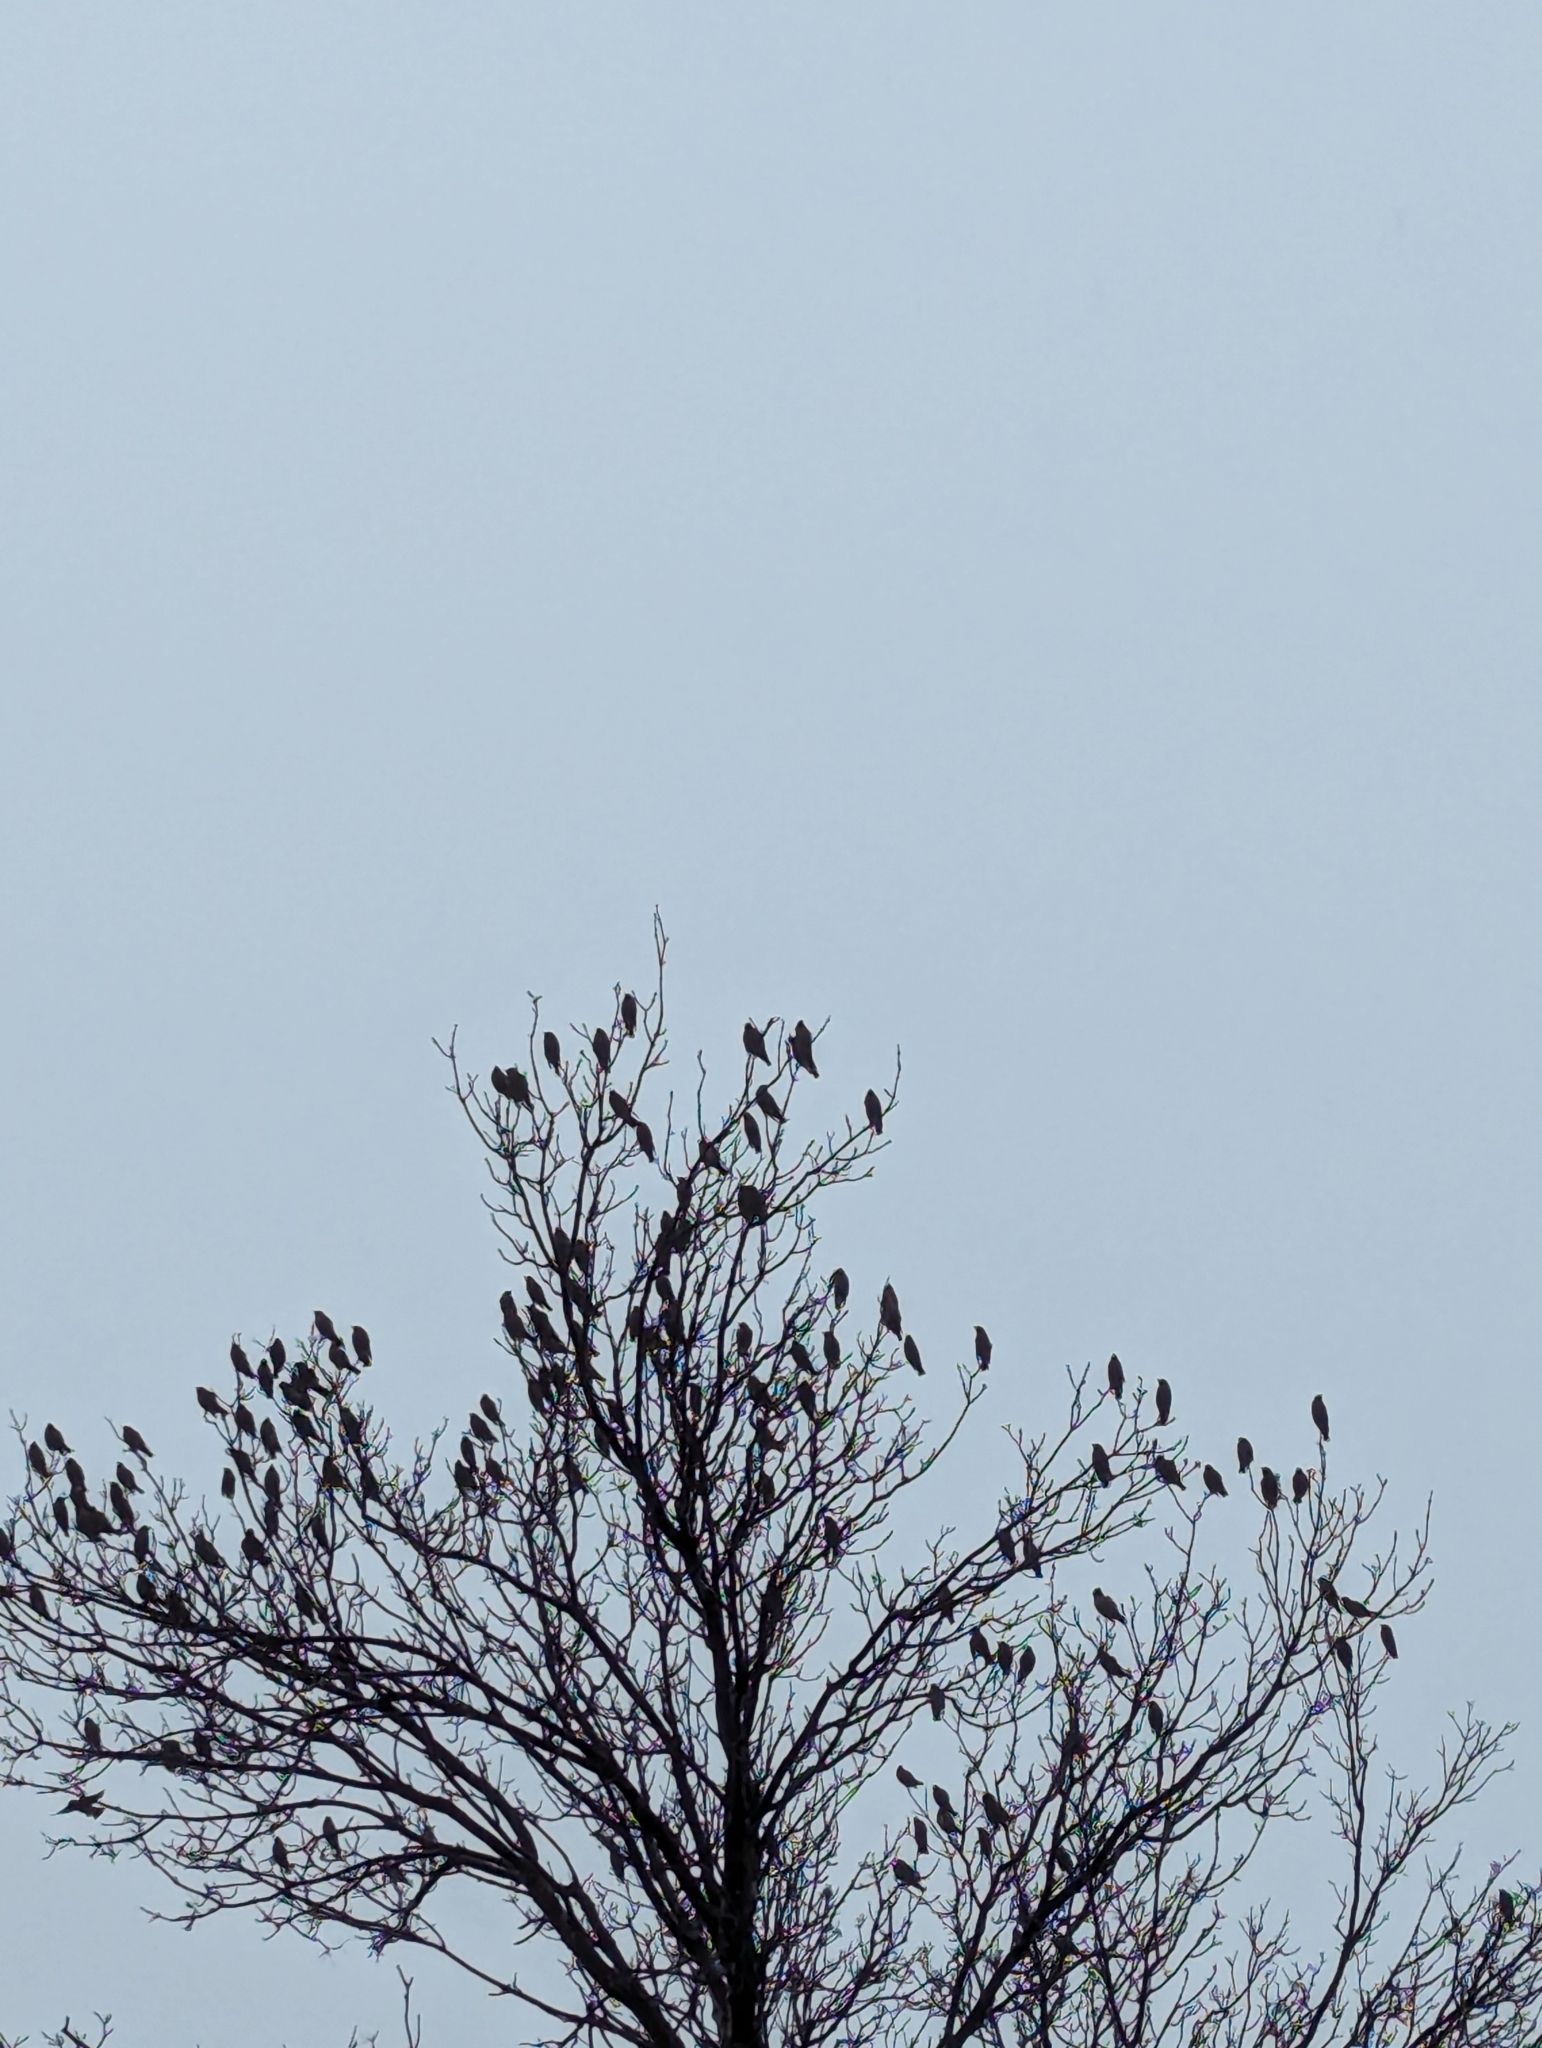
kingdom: Animalia
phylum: Chordata
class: Aves
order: Passeriformes
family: Bombycillidae
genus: Bombycilla
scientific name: Bombycilla garrulus
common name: Bohemian waxwing
